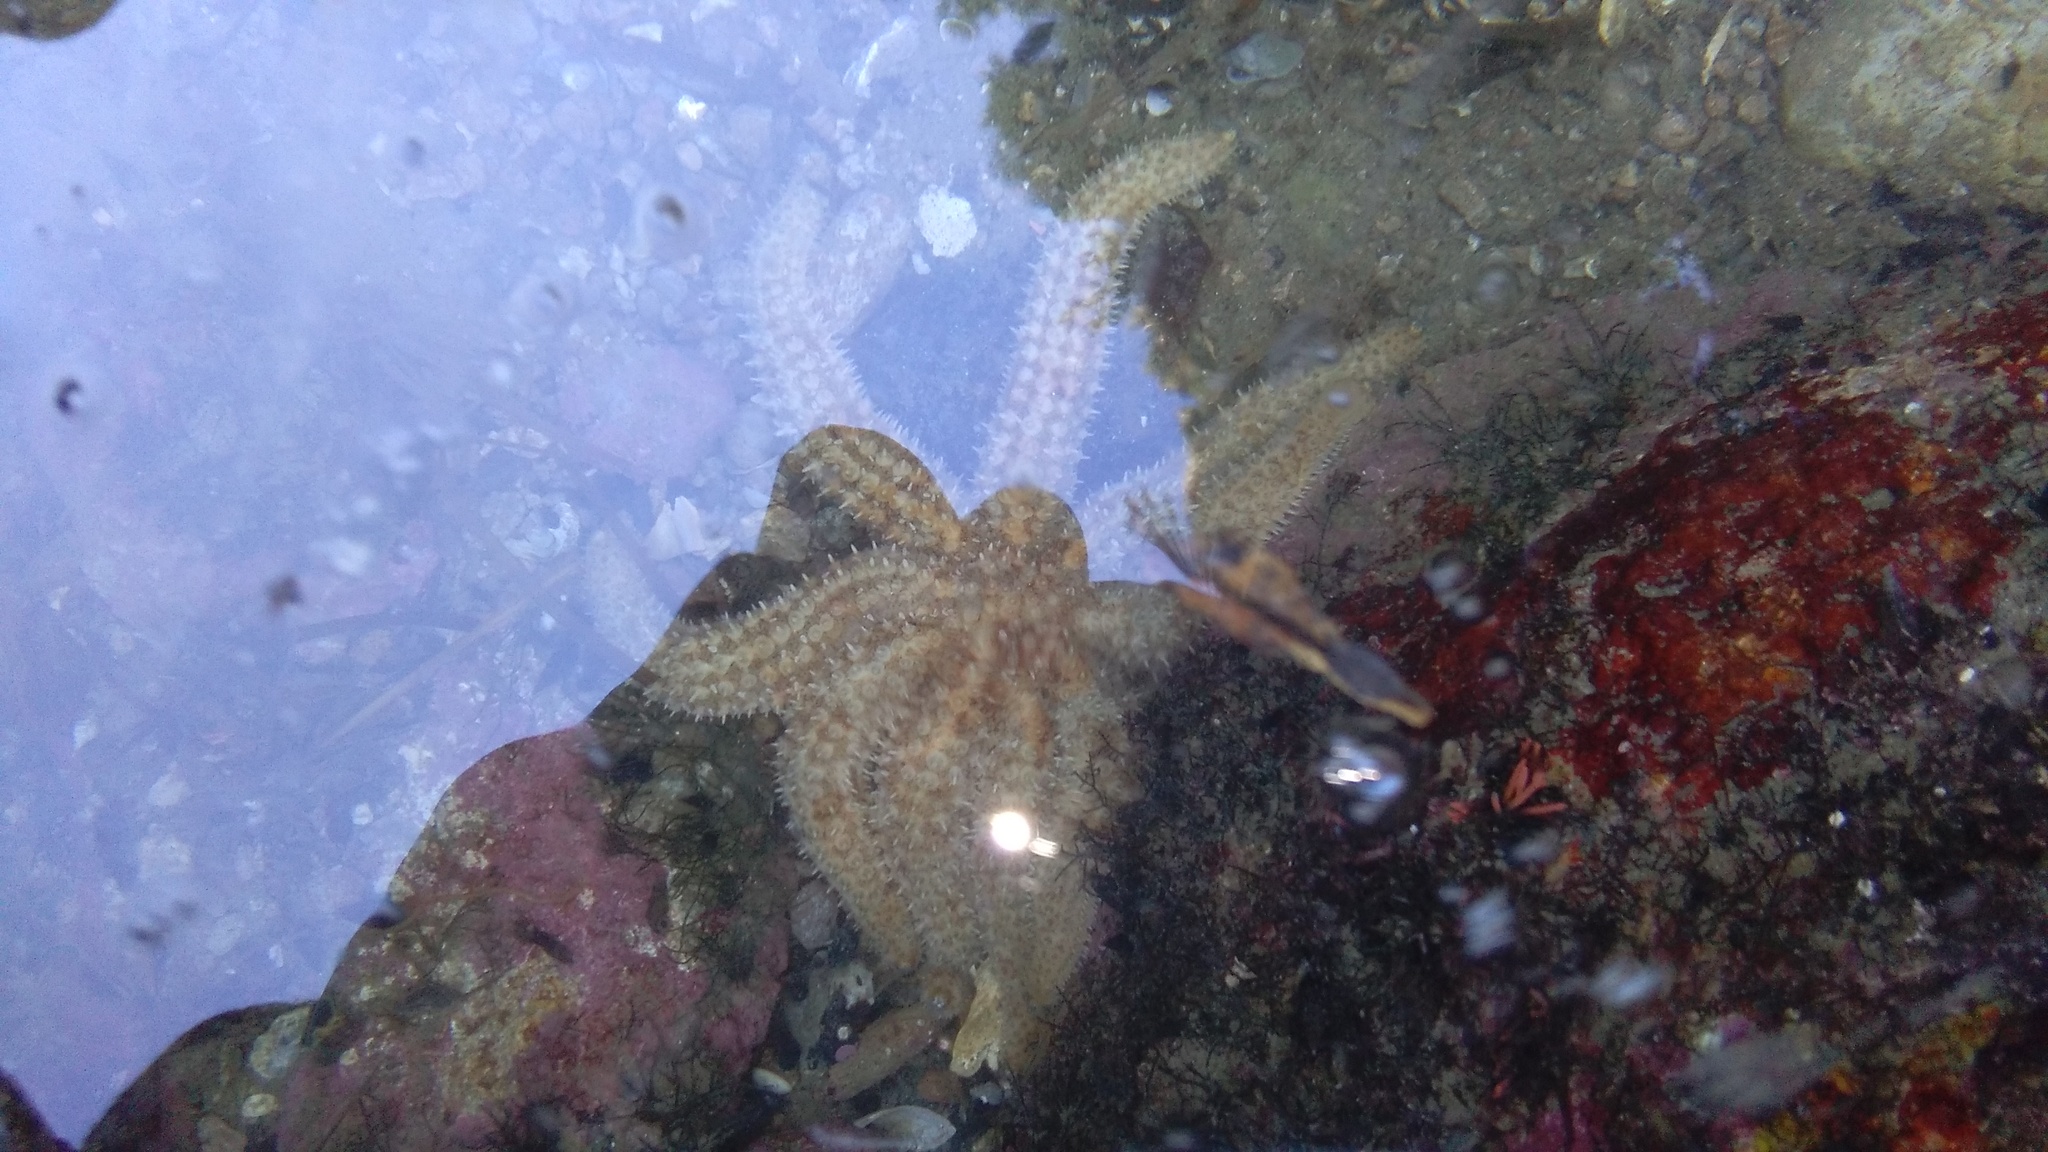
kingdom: Animalia
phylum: Echinodermata
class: Asteroidea
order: Forcipulatida
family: Asteriidae
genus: Coscinasterias
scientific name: Coscinasterias muricata
